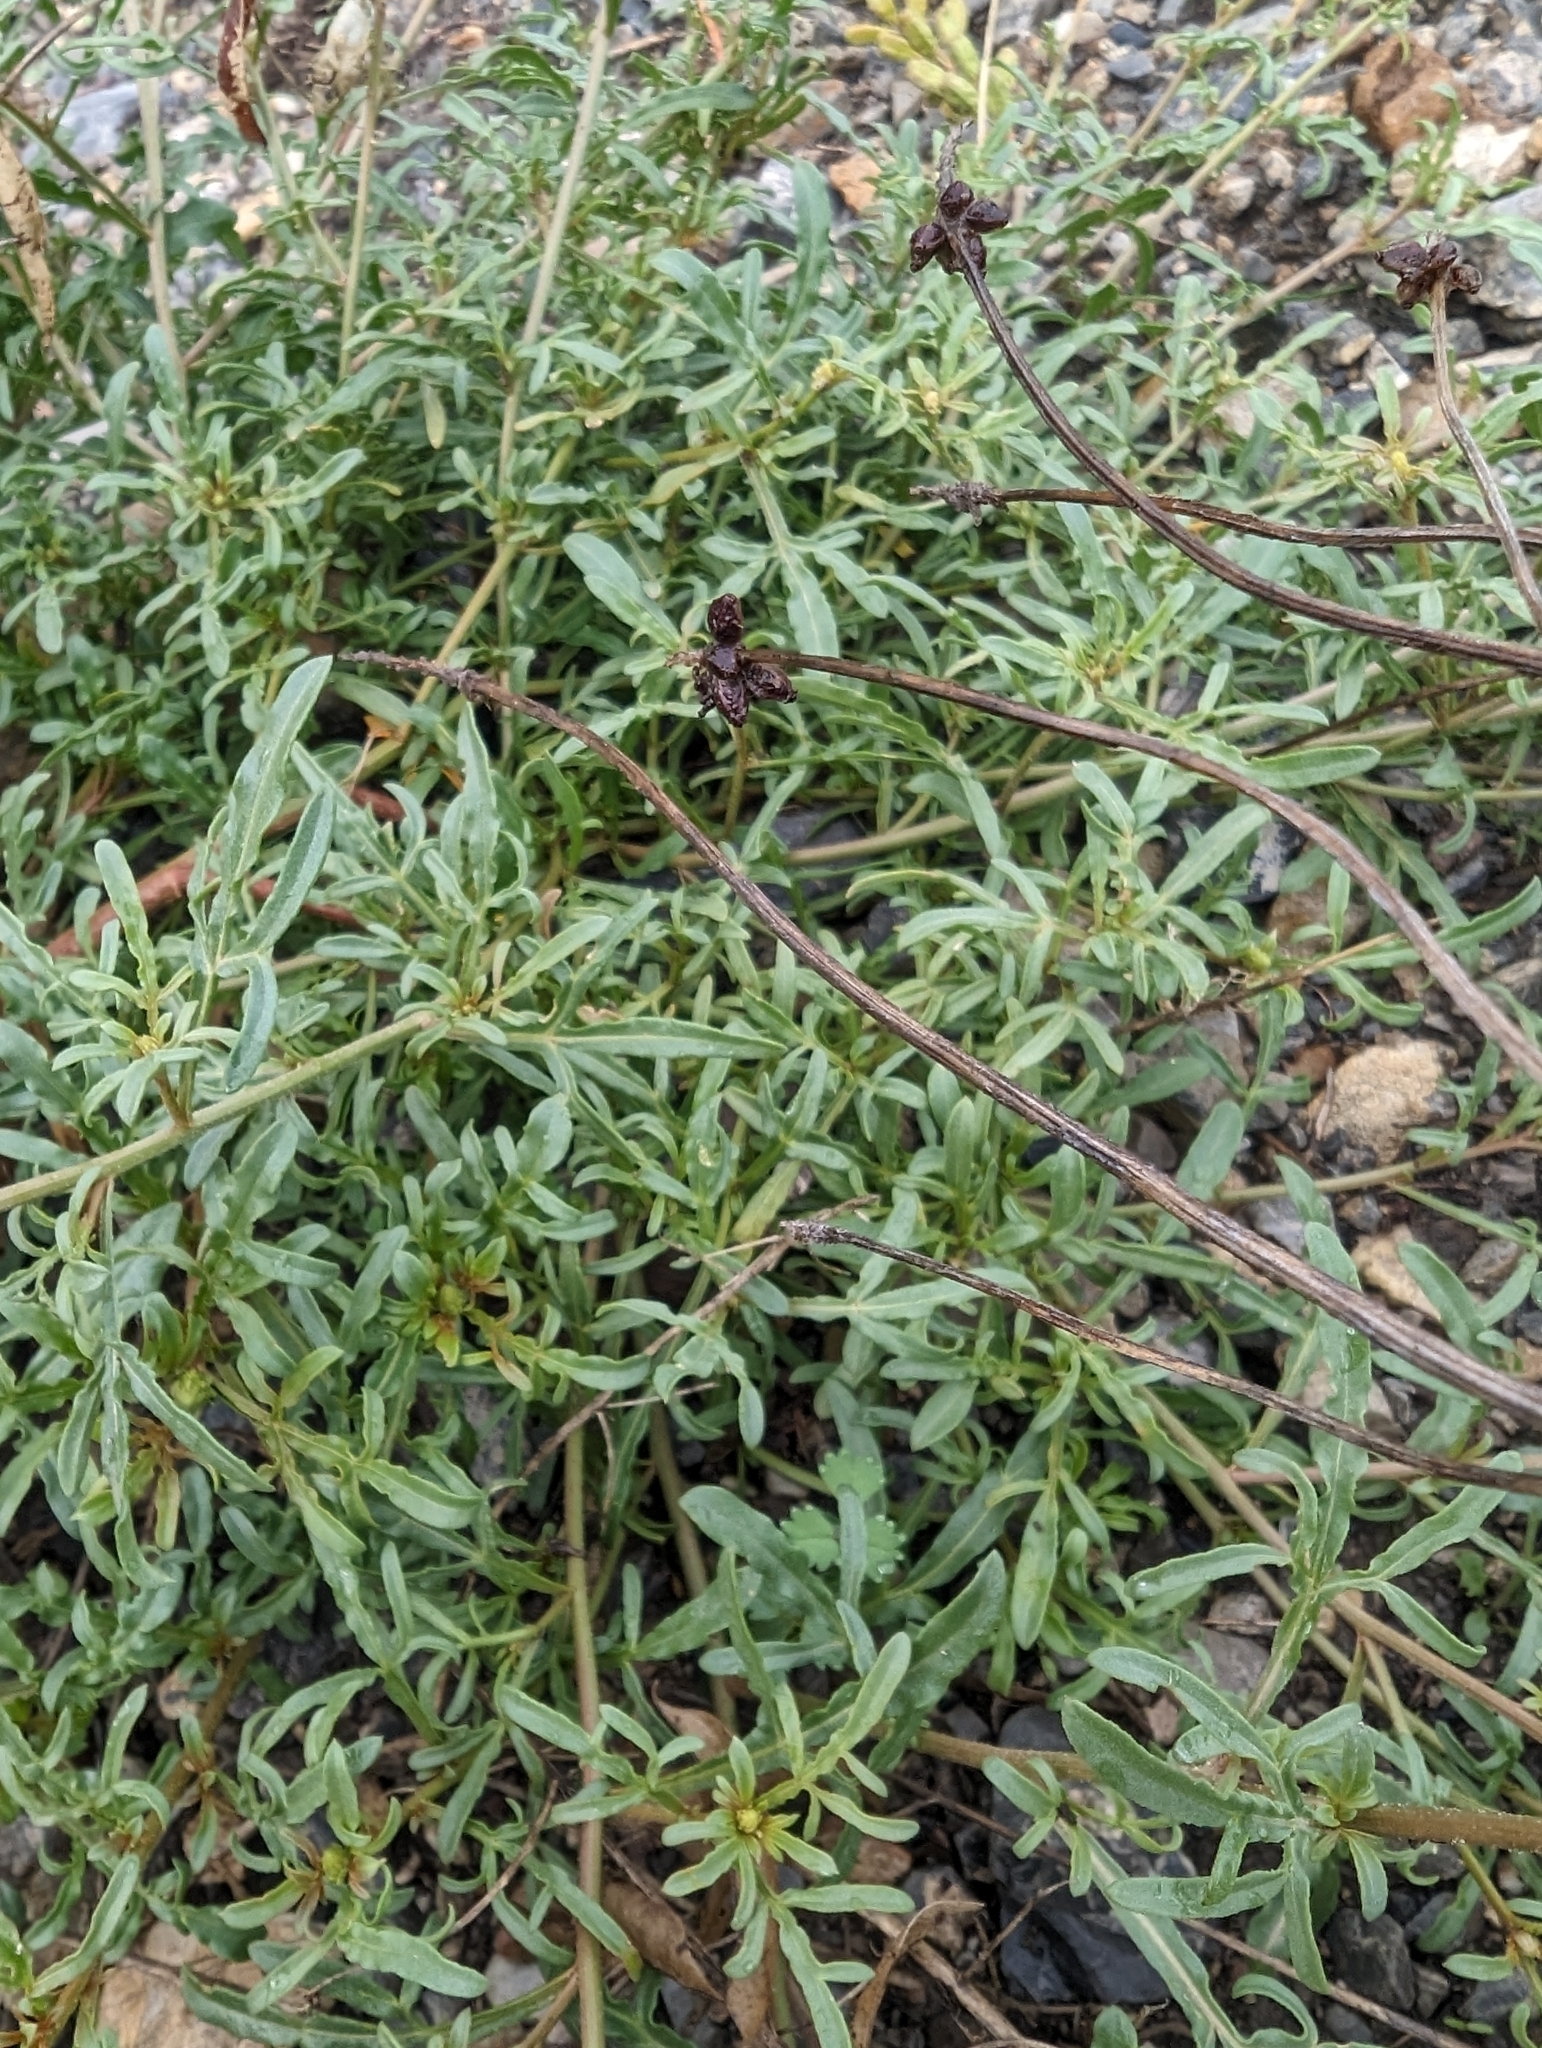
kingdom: Plantae
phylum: Tracheophyta
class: Magnoliopsida
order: Brassicales
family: Resedaceae
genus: Reseda
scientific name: Reseda lutea
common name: Wild mignonette
